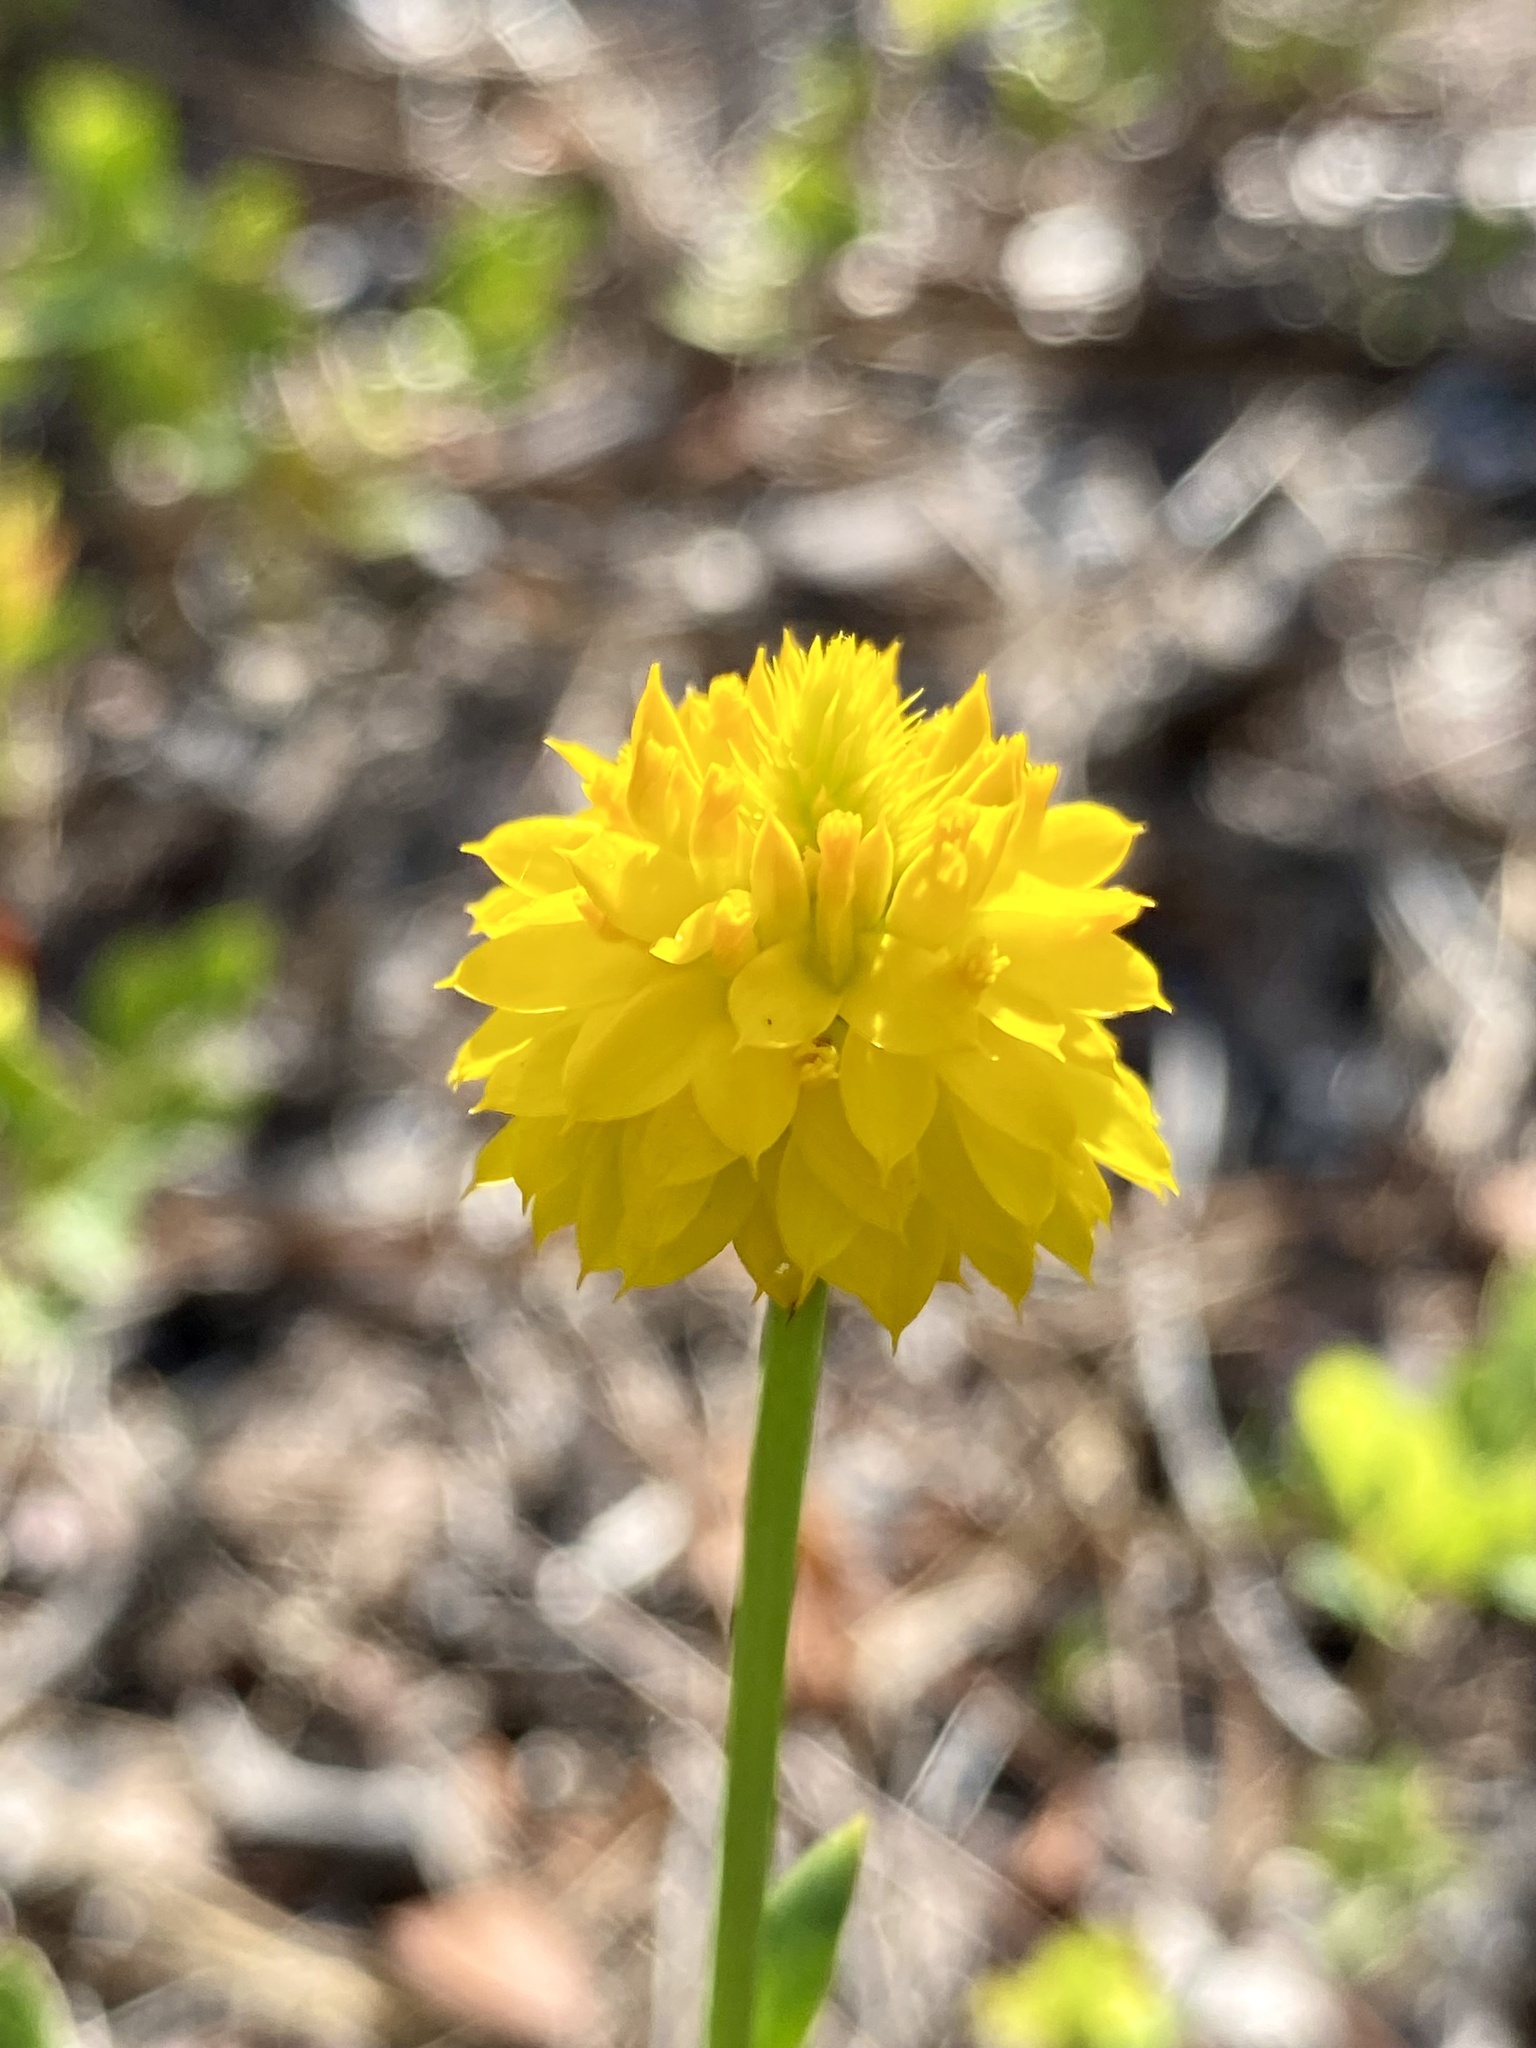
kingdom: Plantae
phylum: Tracheophyta
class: Magnoliopsida
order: Fabales
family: Polygalaceae
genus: Polygala
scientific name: Polygala rugelii
